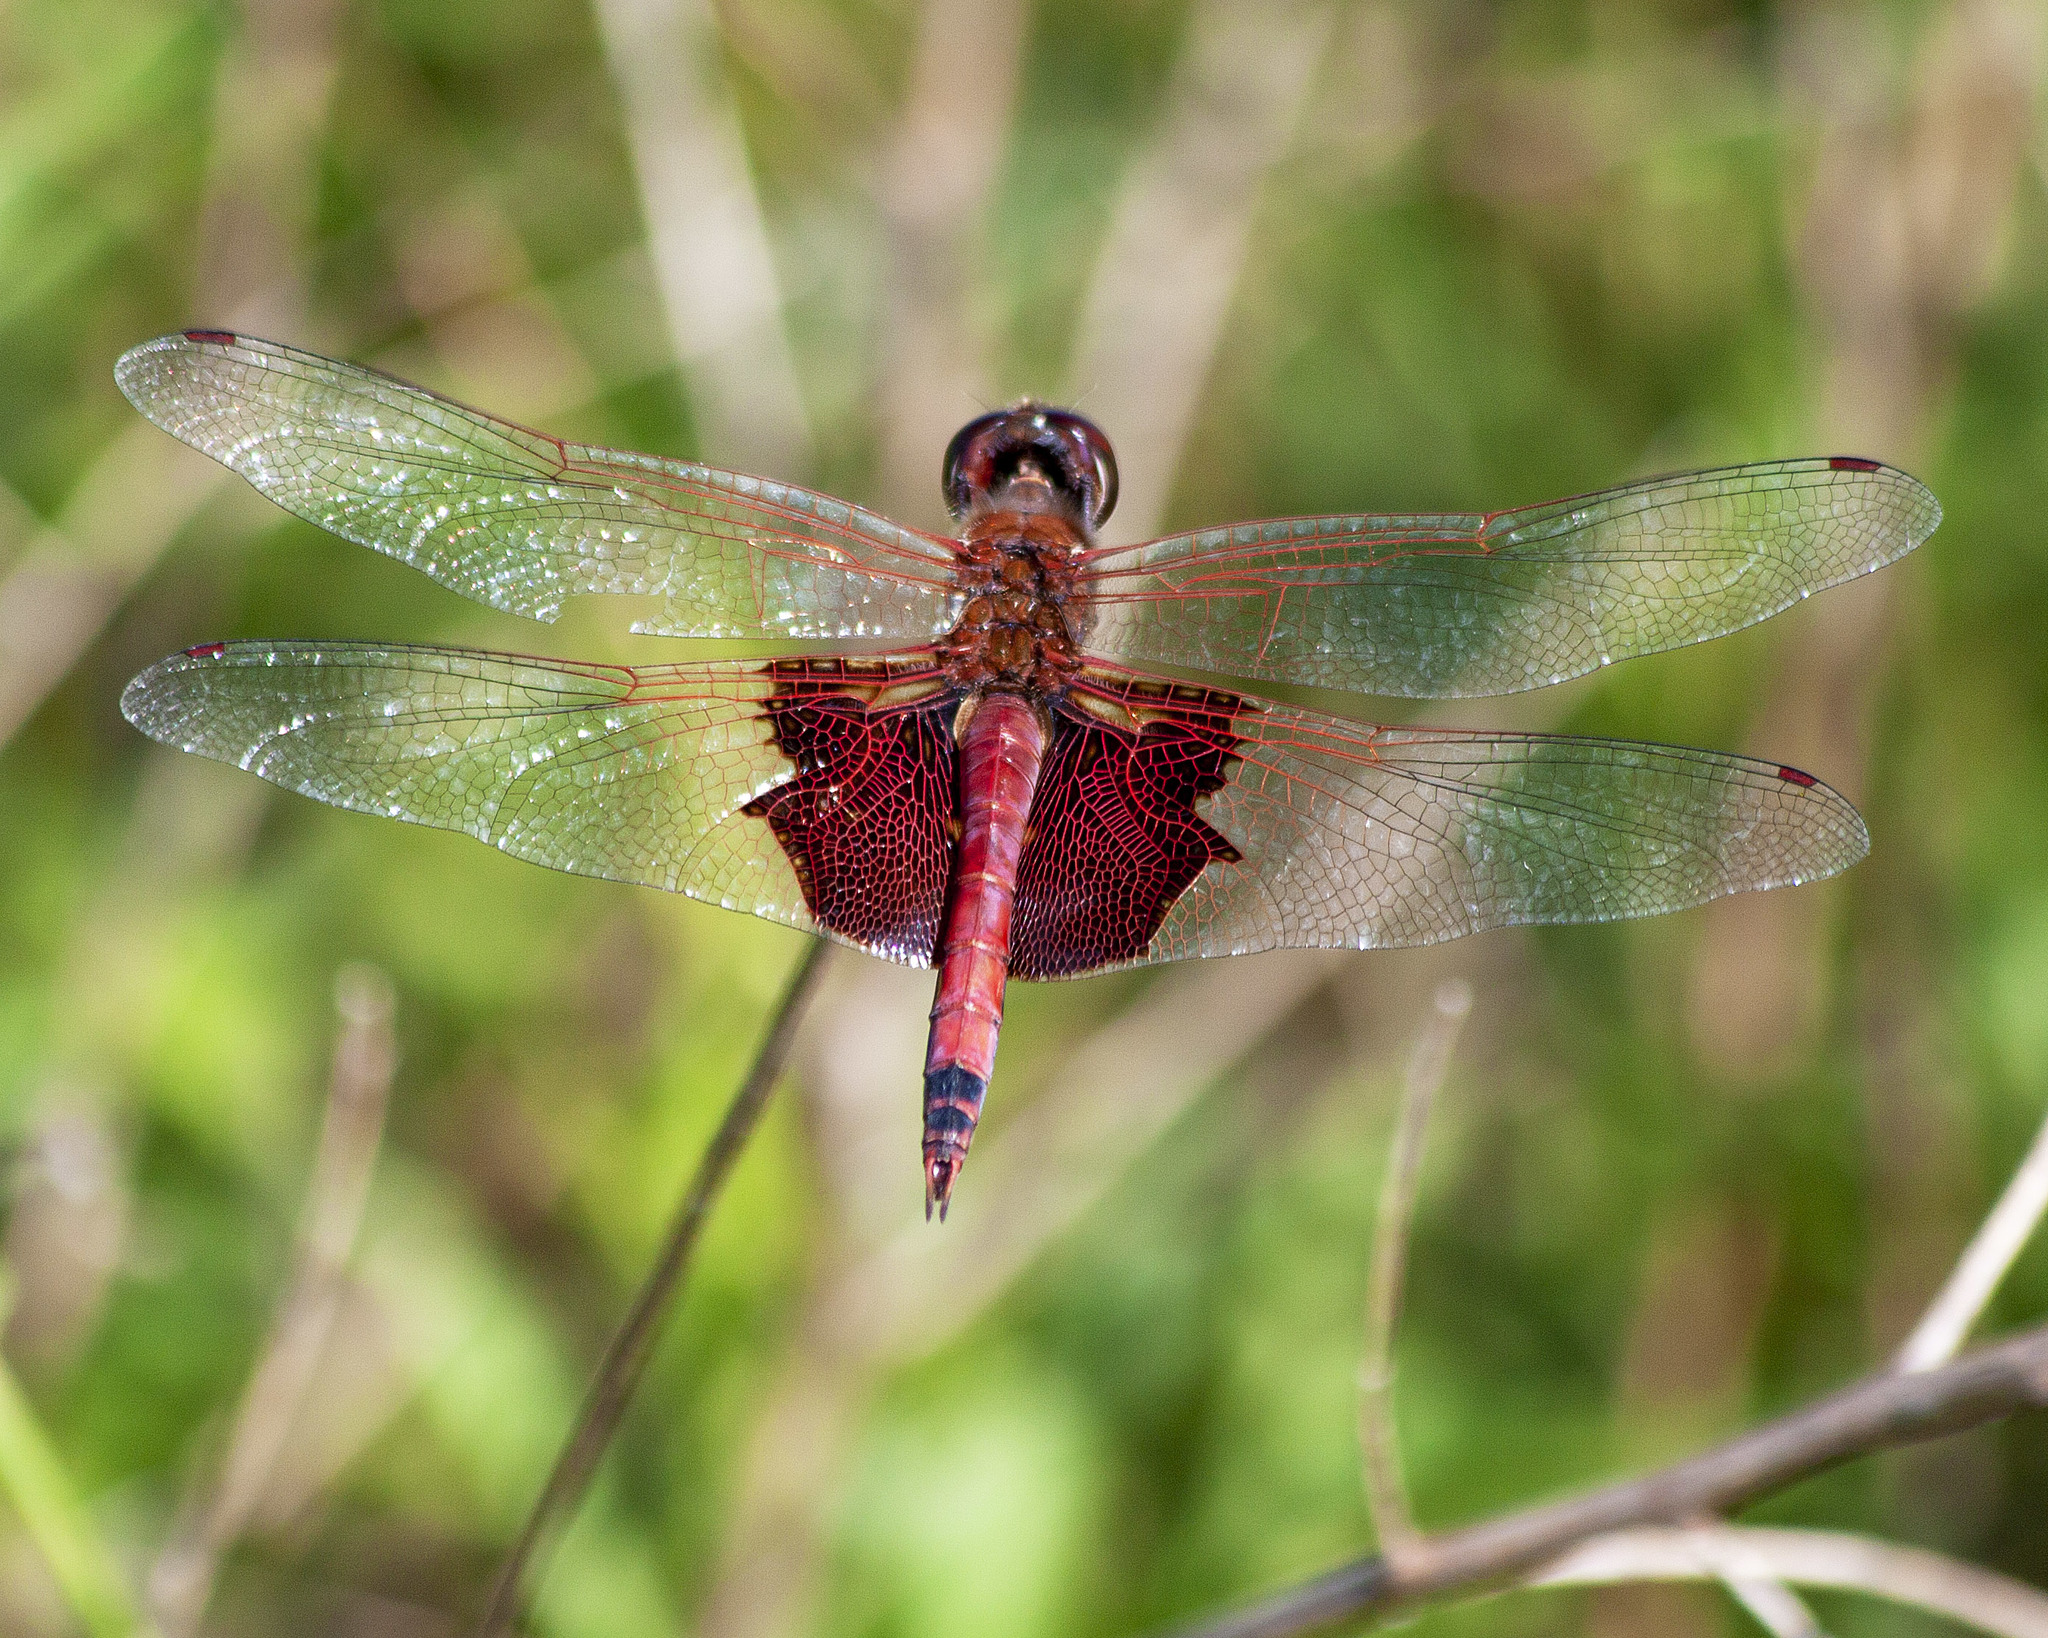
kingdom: Animalia
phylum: Arthropoda
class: Insecta
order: Odonata
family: Libellulidae
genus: Tramea
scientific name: Tramea carolina
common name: Carolina saddlebags
